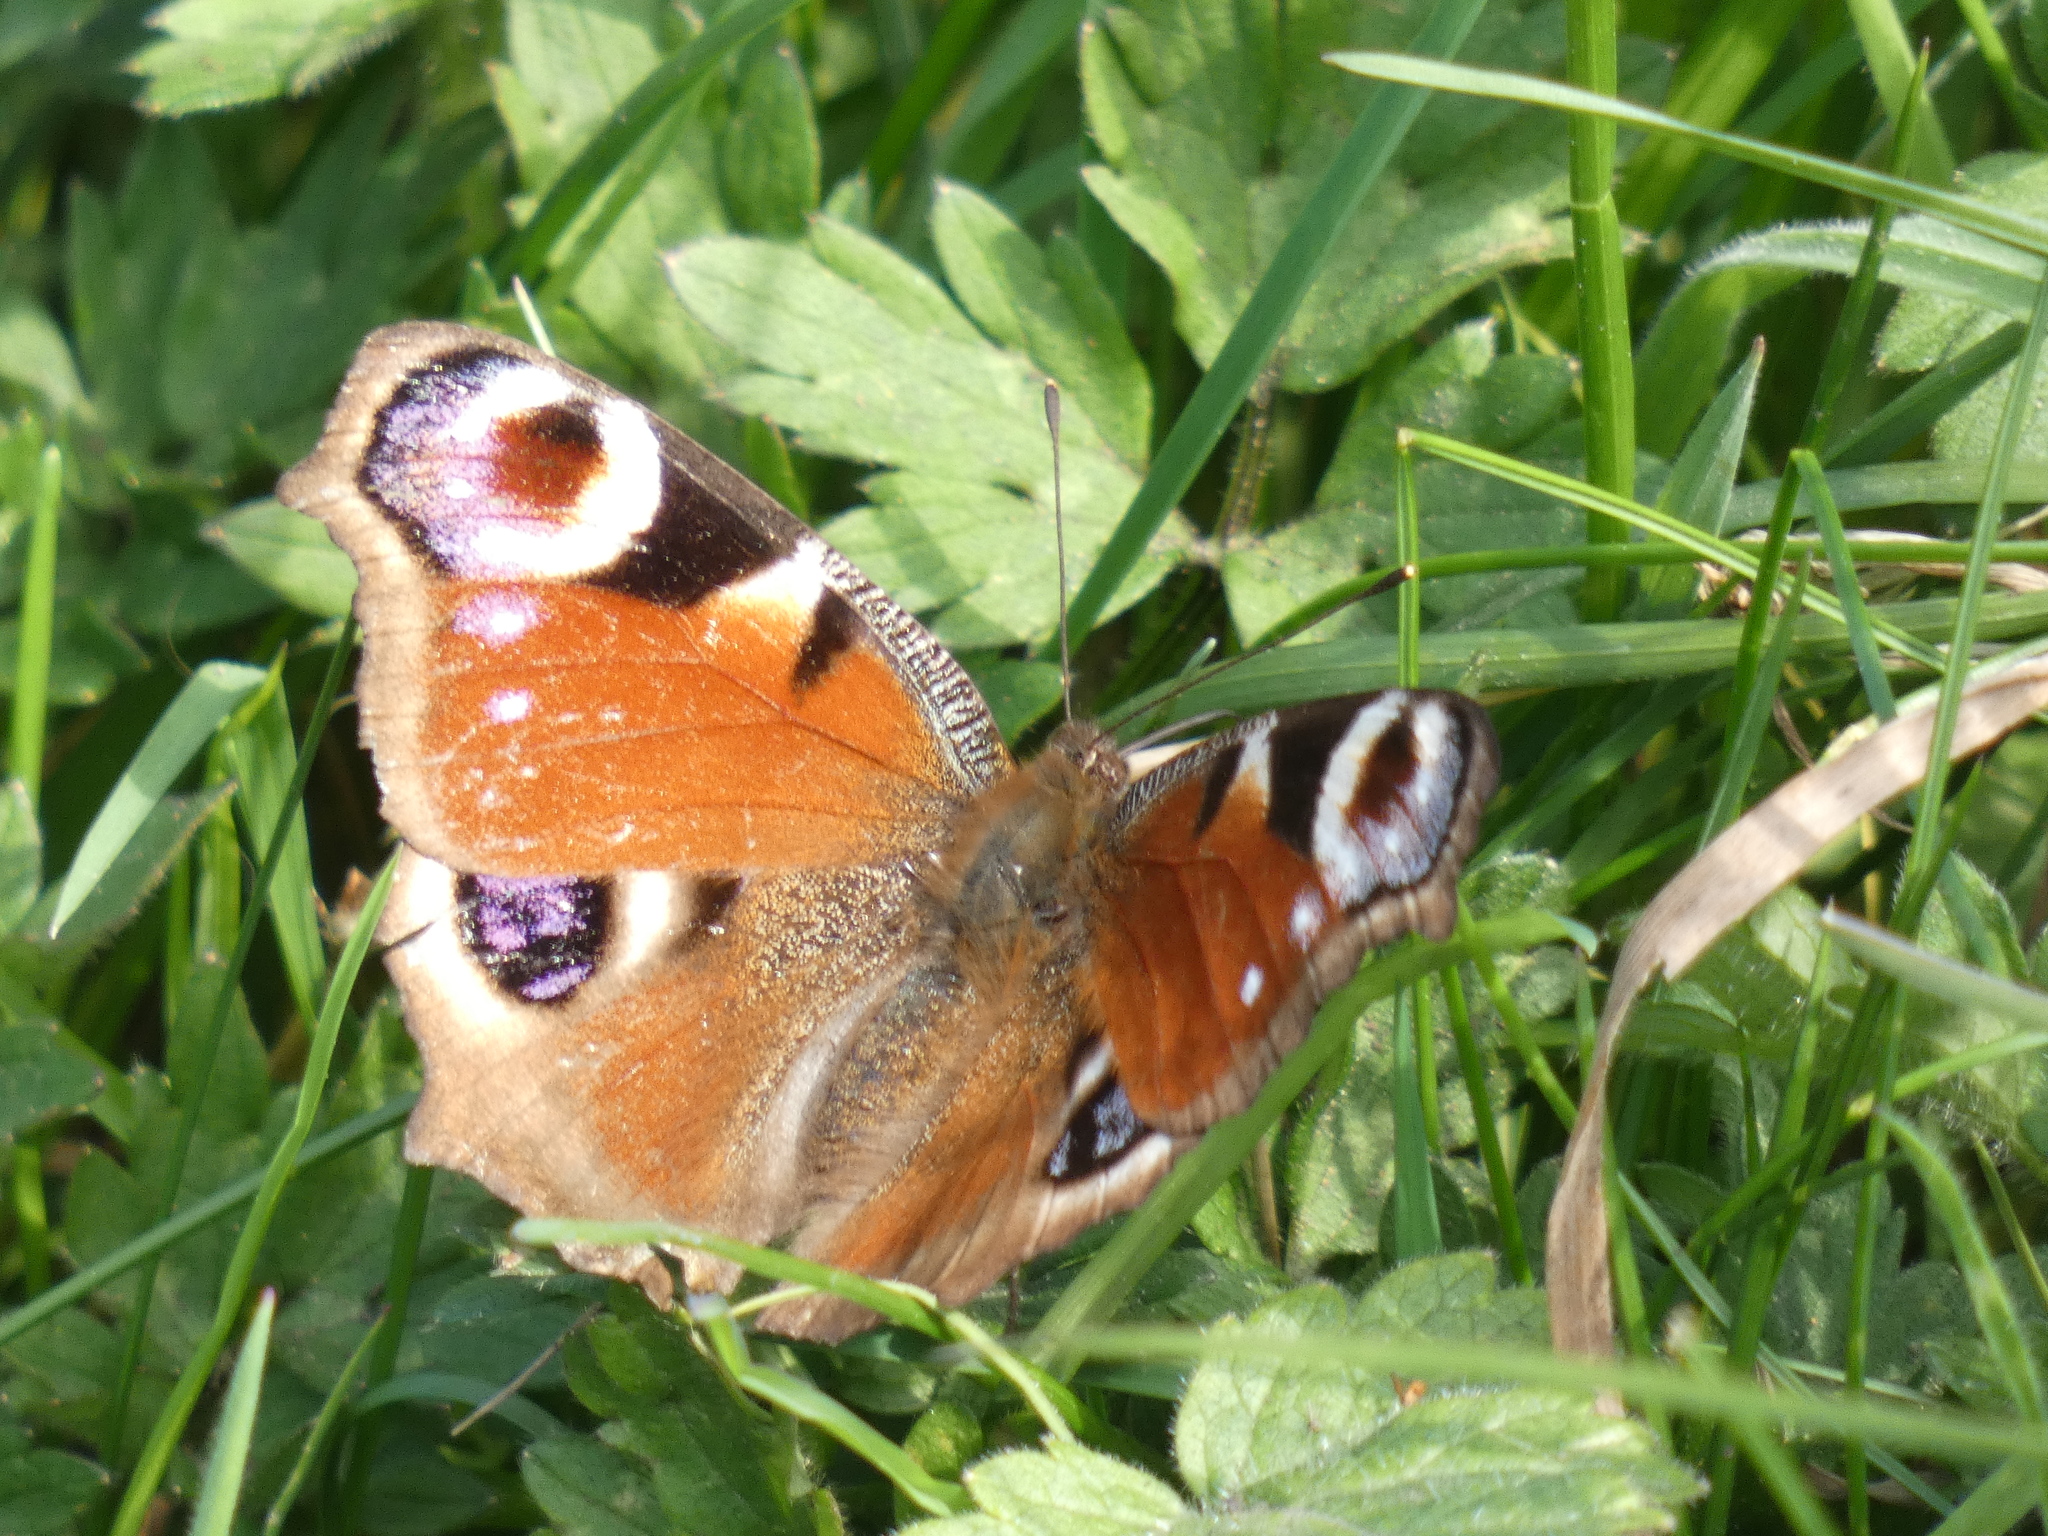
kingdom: Animalia
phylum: Arthropoda
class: Insecta
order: Lepidoptera
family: Nymphalidae
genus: Aglais
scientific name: Aglais io
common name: Peacock
